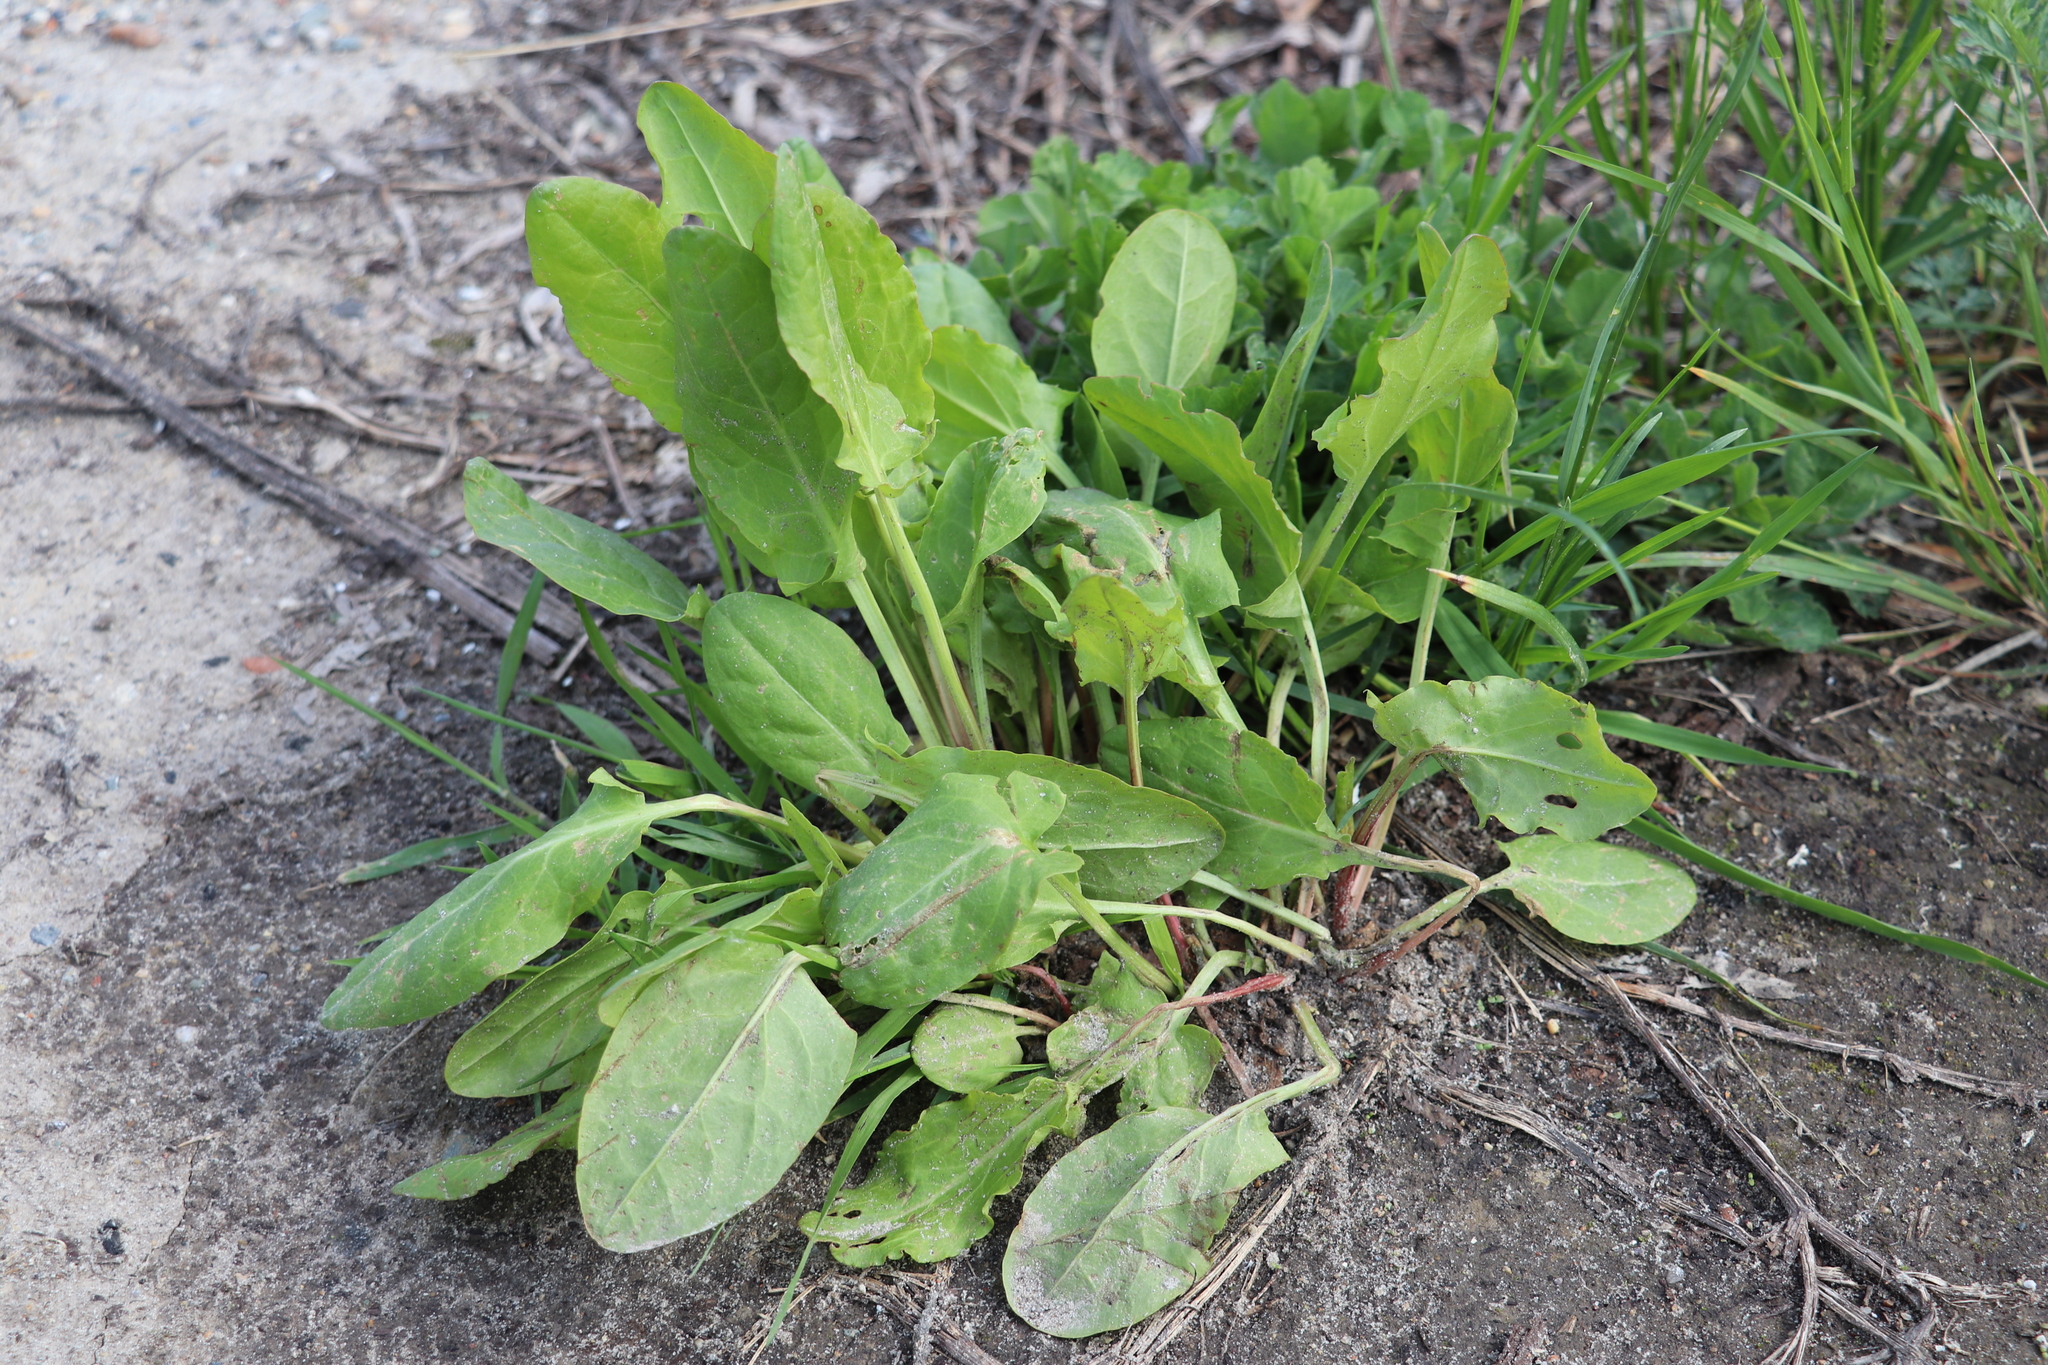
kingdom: Plantae
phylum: Tracheophyta
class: Magnoliopsida
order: Caryophyllales
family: Polygonaceae
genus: Rumex
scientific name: Rumex acetosa
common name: Garden sorrel
